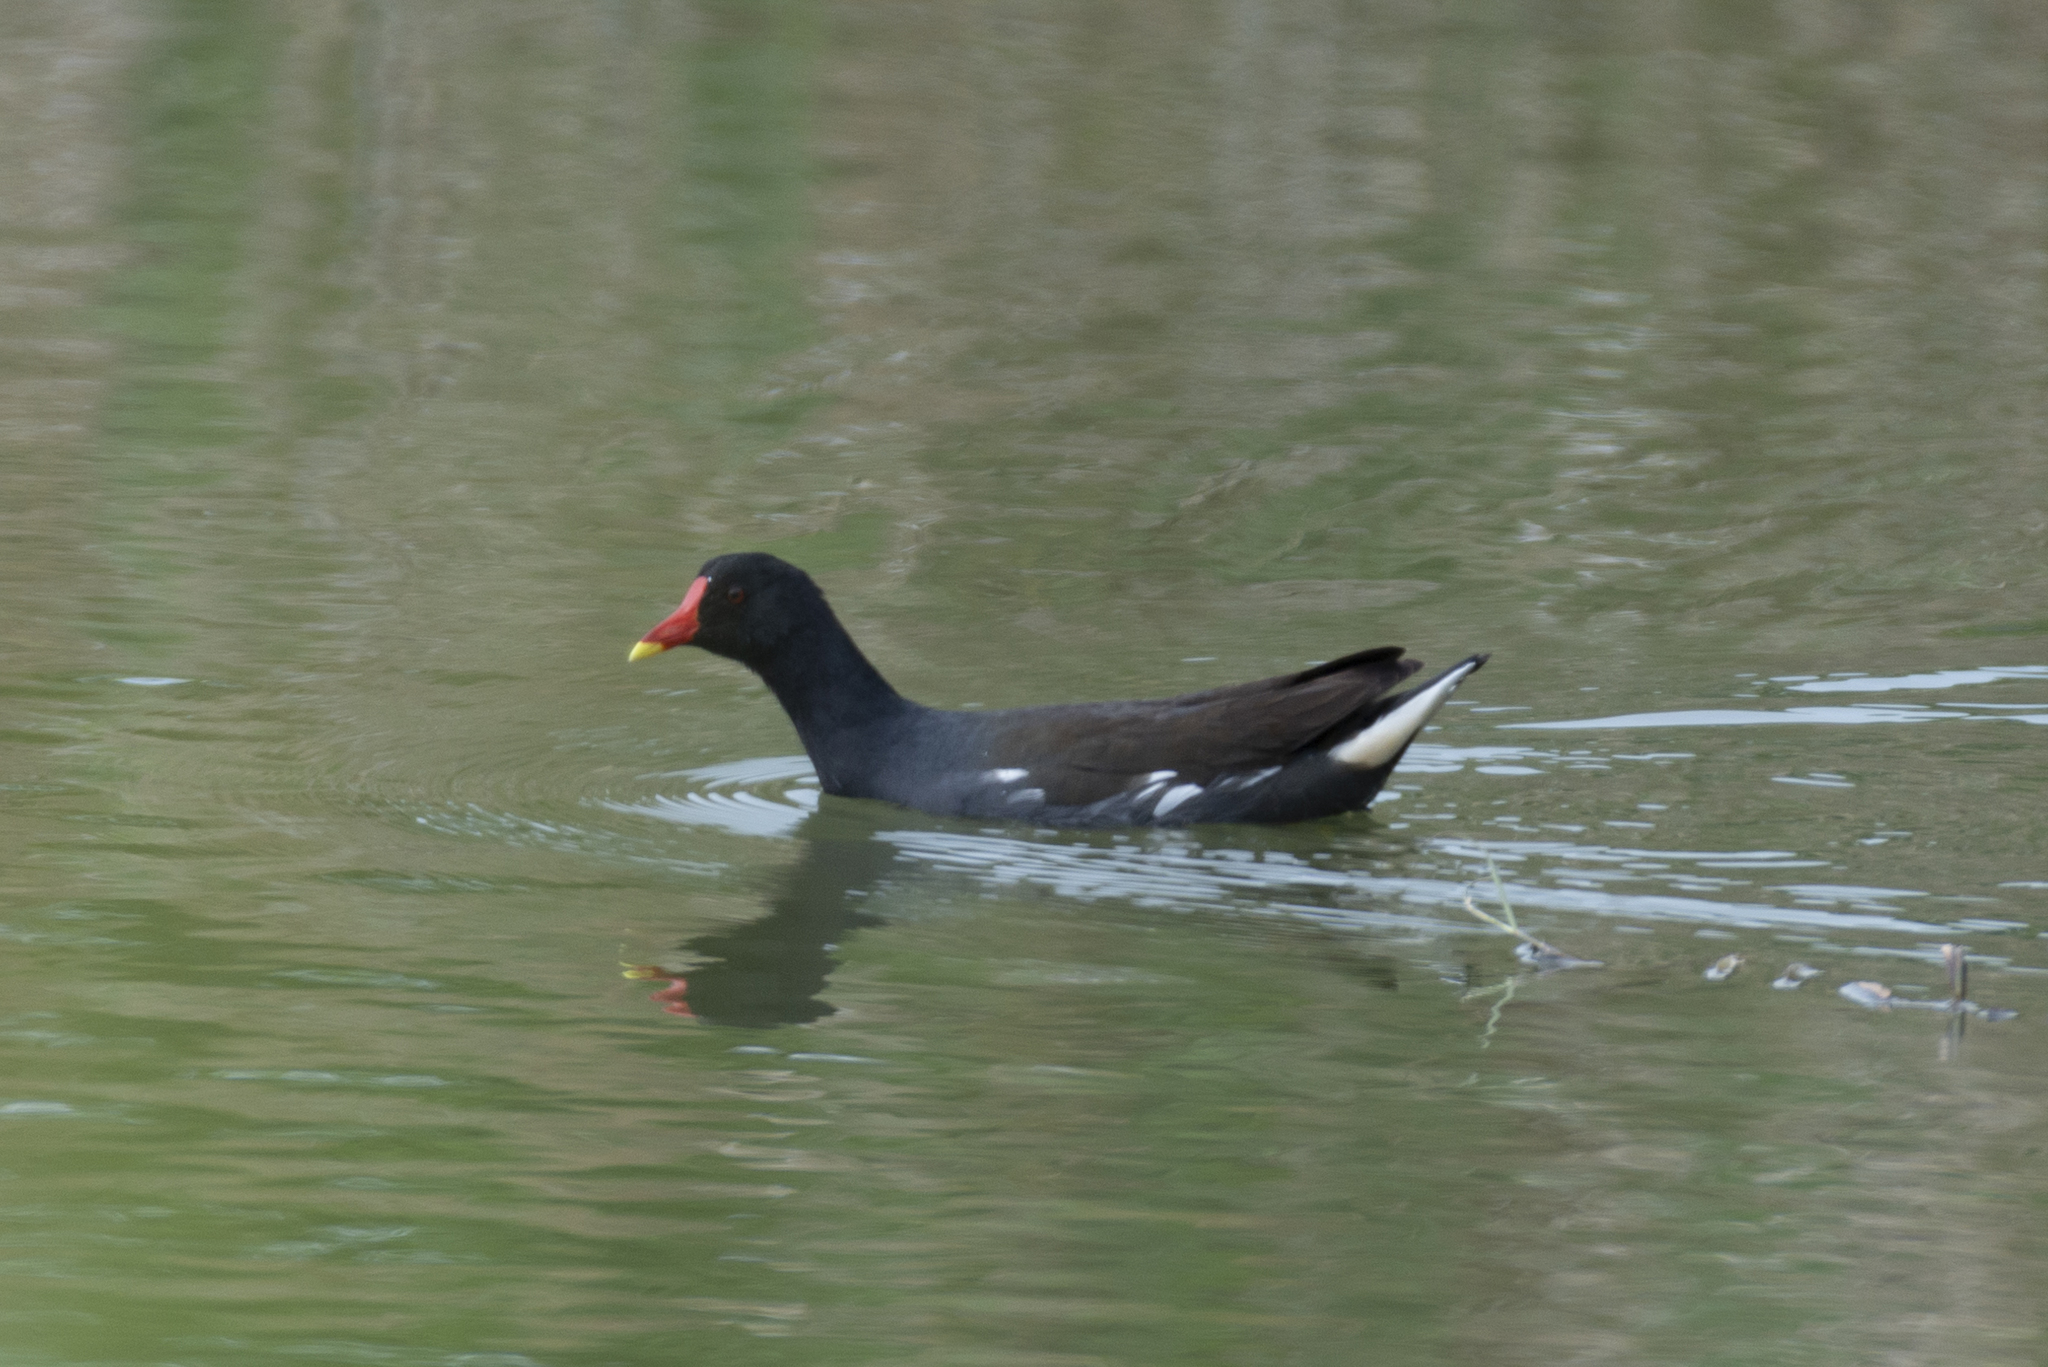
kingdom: Animalia
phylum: Chordata
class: Aves
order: Gruiformes
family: Rallidae
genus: Gallinula
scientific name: Gallinula chloropus
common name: Common moorhen
